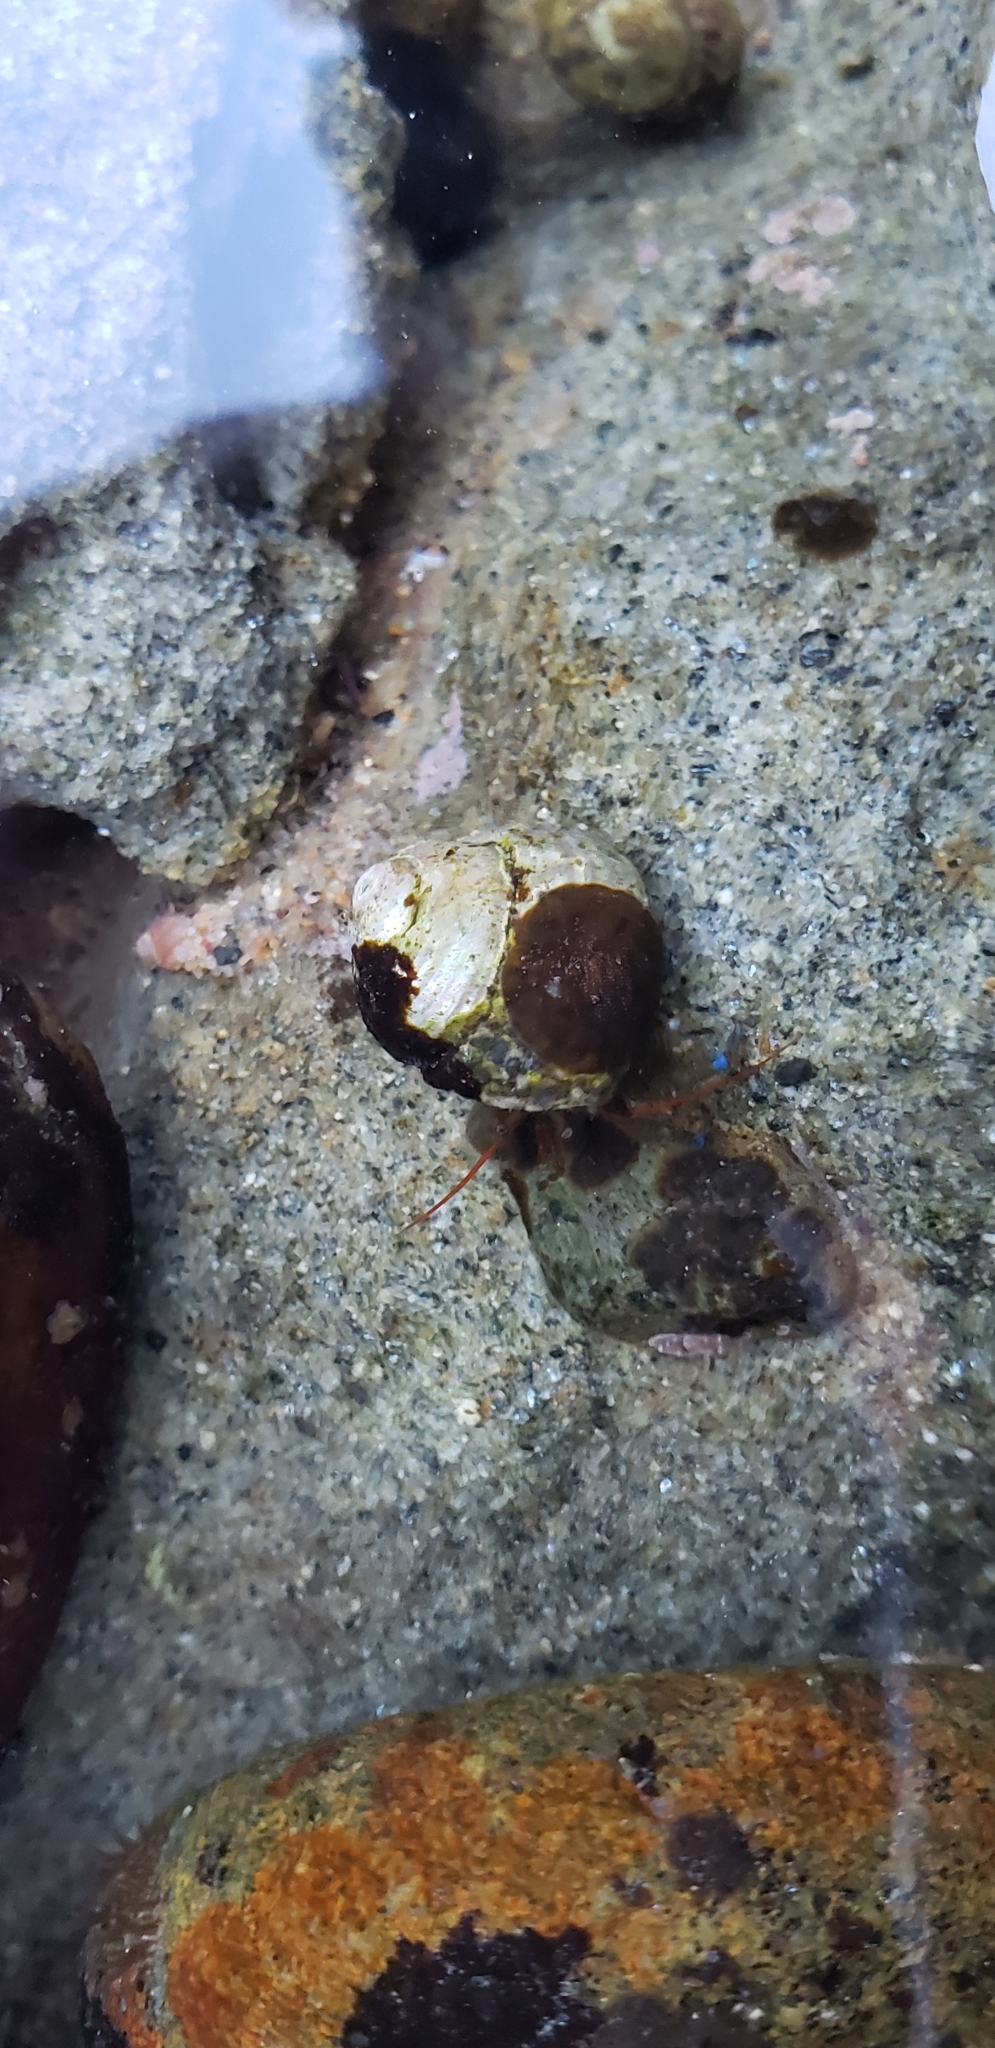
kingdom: Animalia
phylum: Arthropoda
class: Malacostraca
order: Decapoda
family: Paguridae
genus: Pagurus
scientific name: Pagurus samuelis
